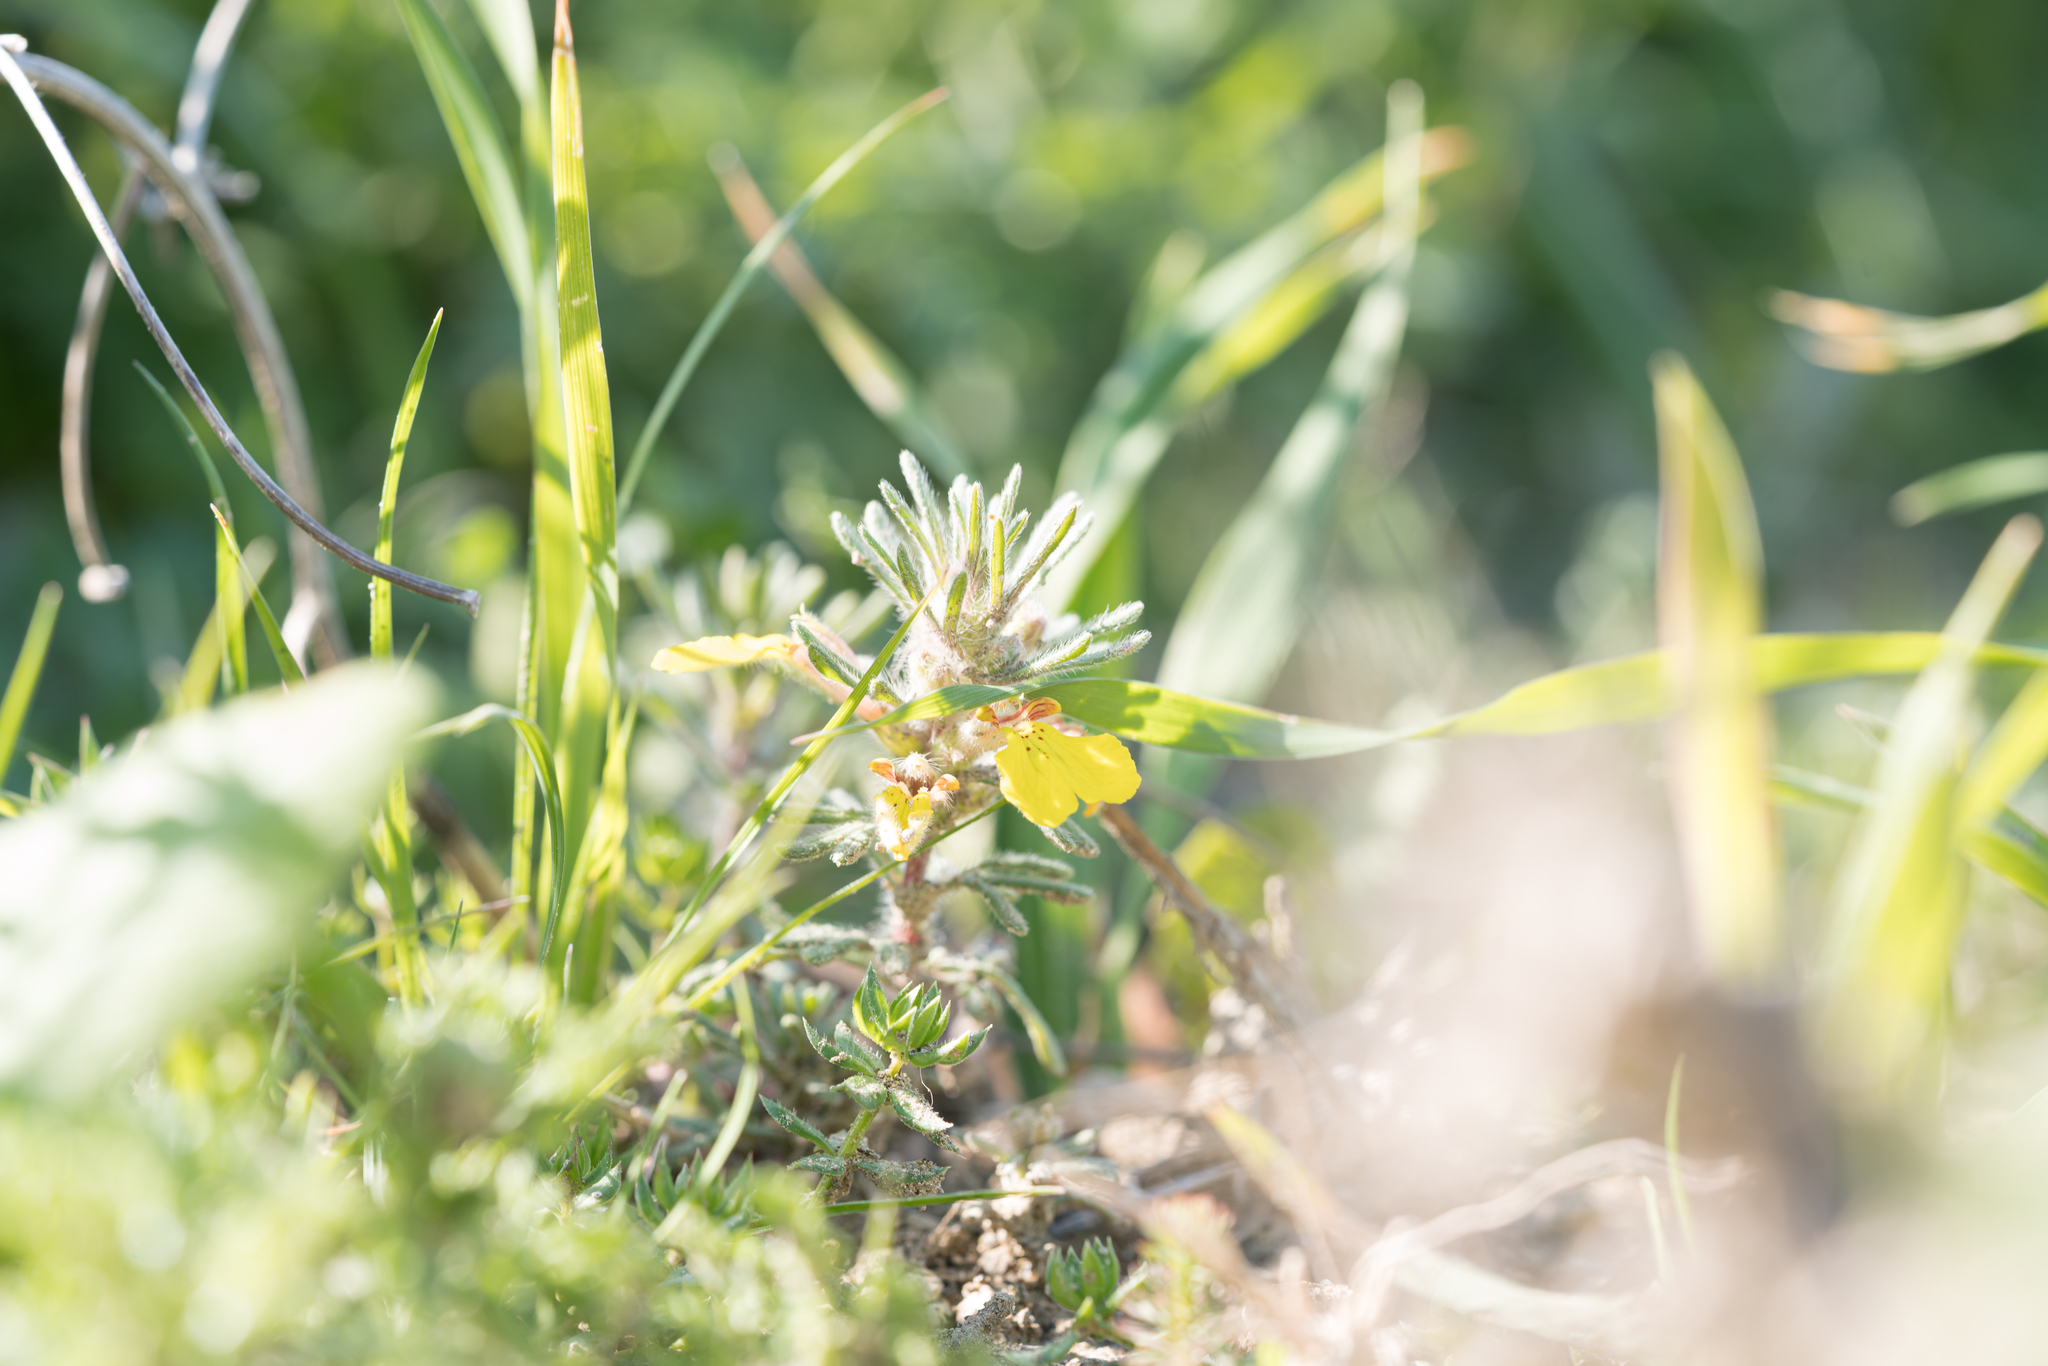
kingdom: Plantae
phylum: Tracheophyta
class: Magnoliopsida
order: Lamiales
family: Lamiaceae
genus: Ajuga
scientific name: Ajuga chamaepitys
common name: Ground-pine
